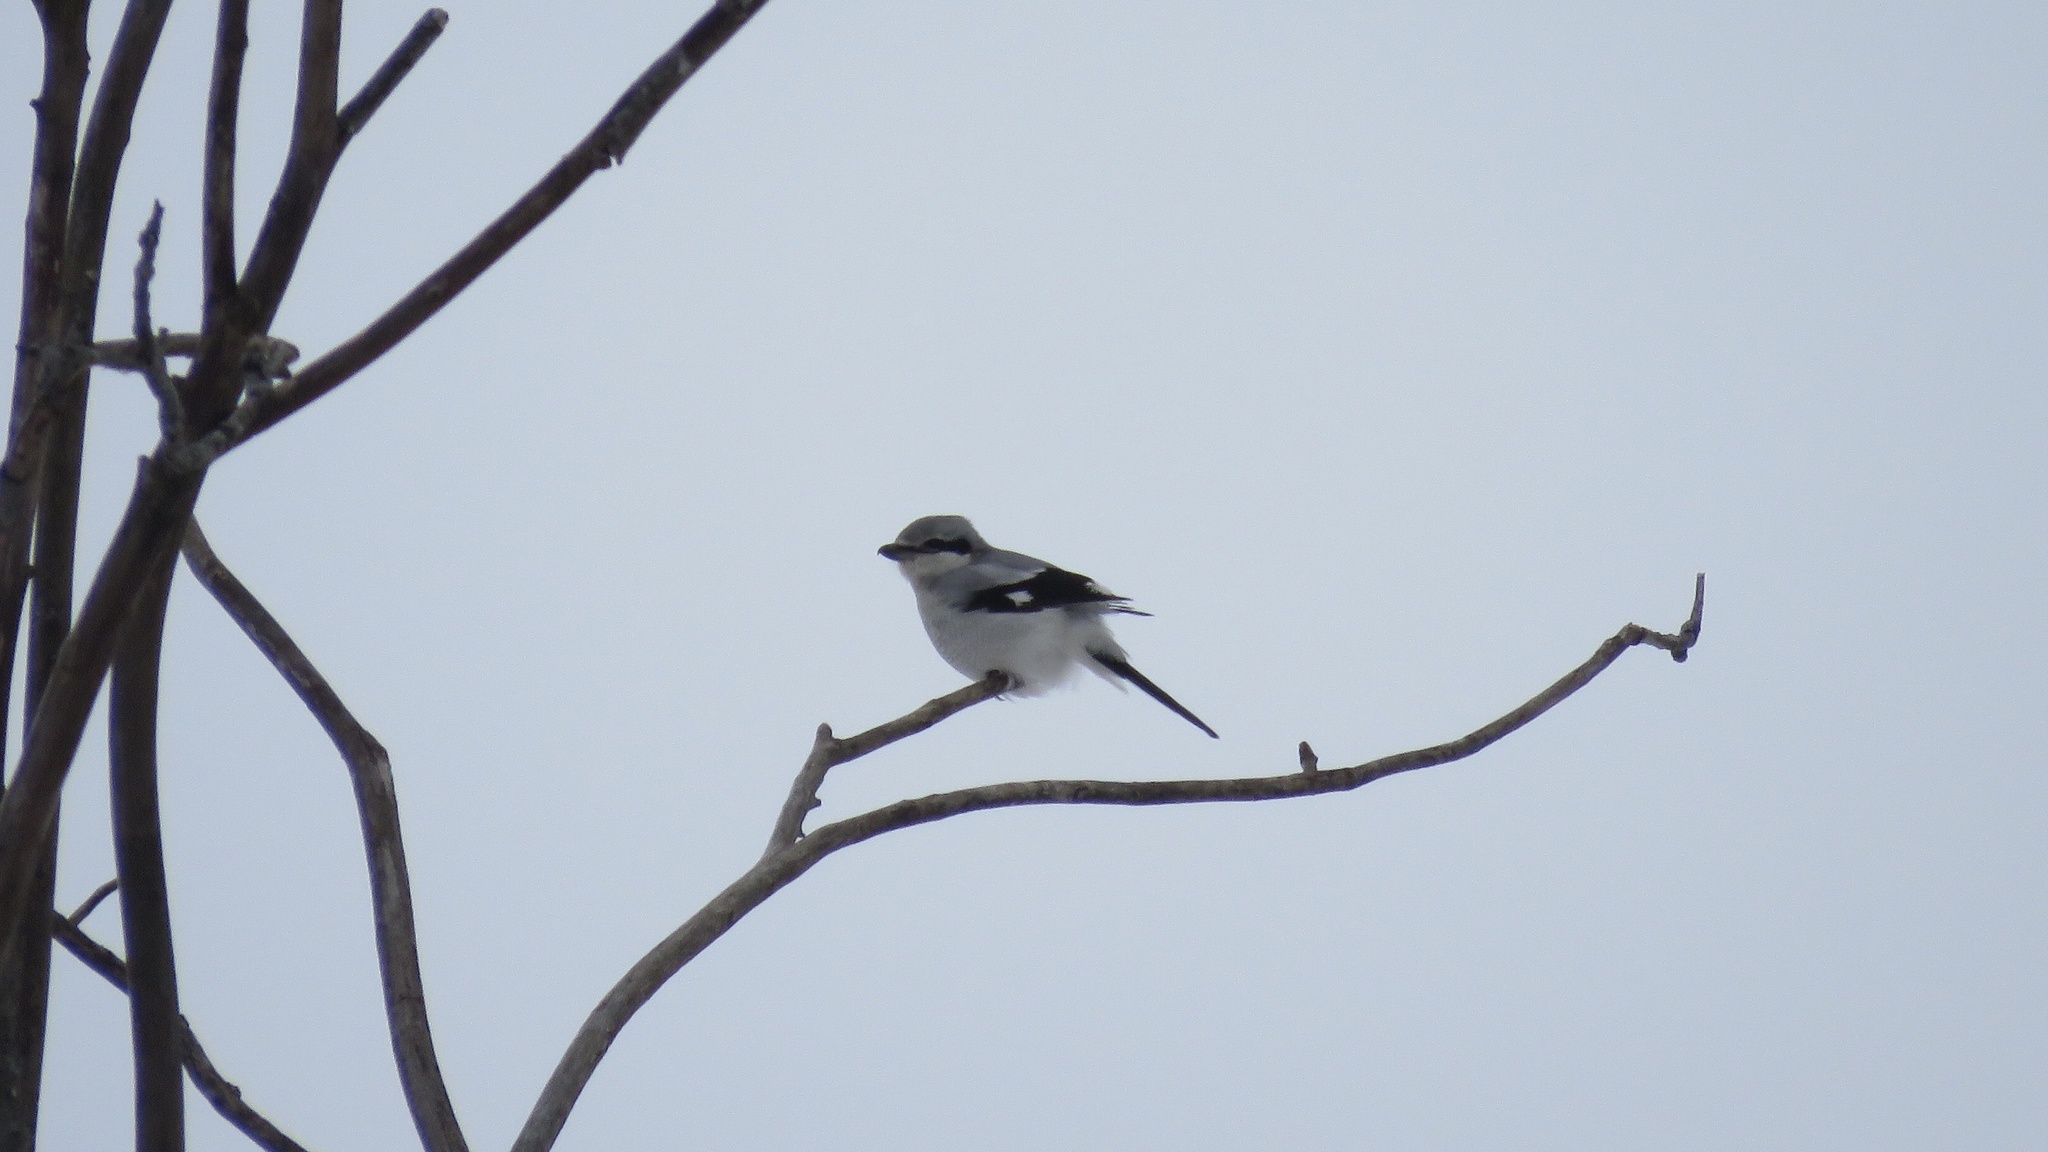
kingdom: Animalia
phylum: Chordata
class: Aves
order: Passeriformes
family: Laniidae
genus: Lanius
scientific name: Lanius borealis
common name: Northern shrike
